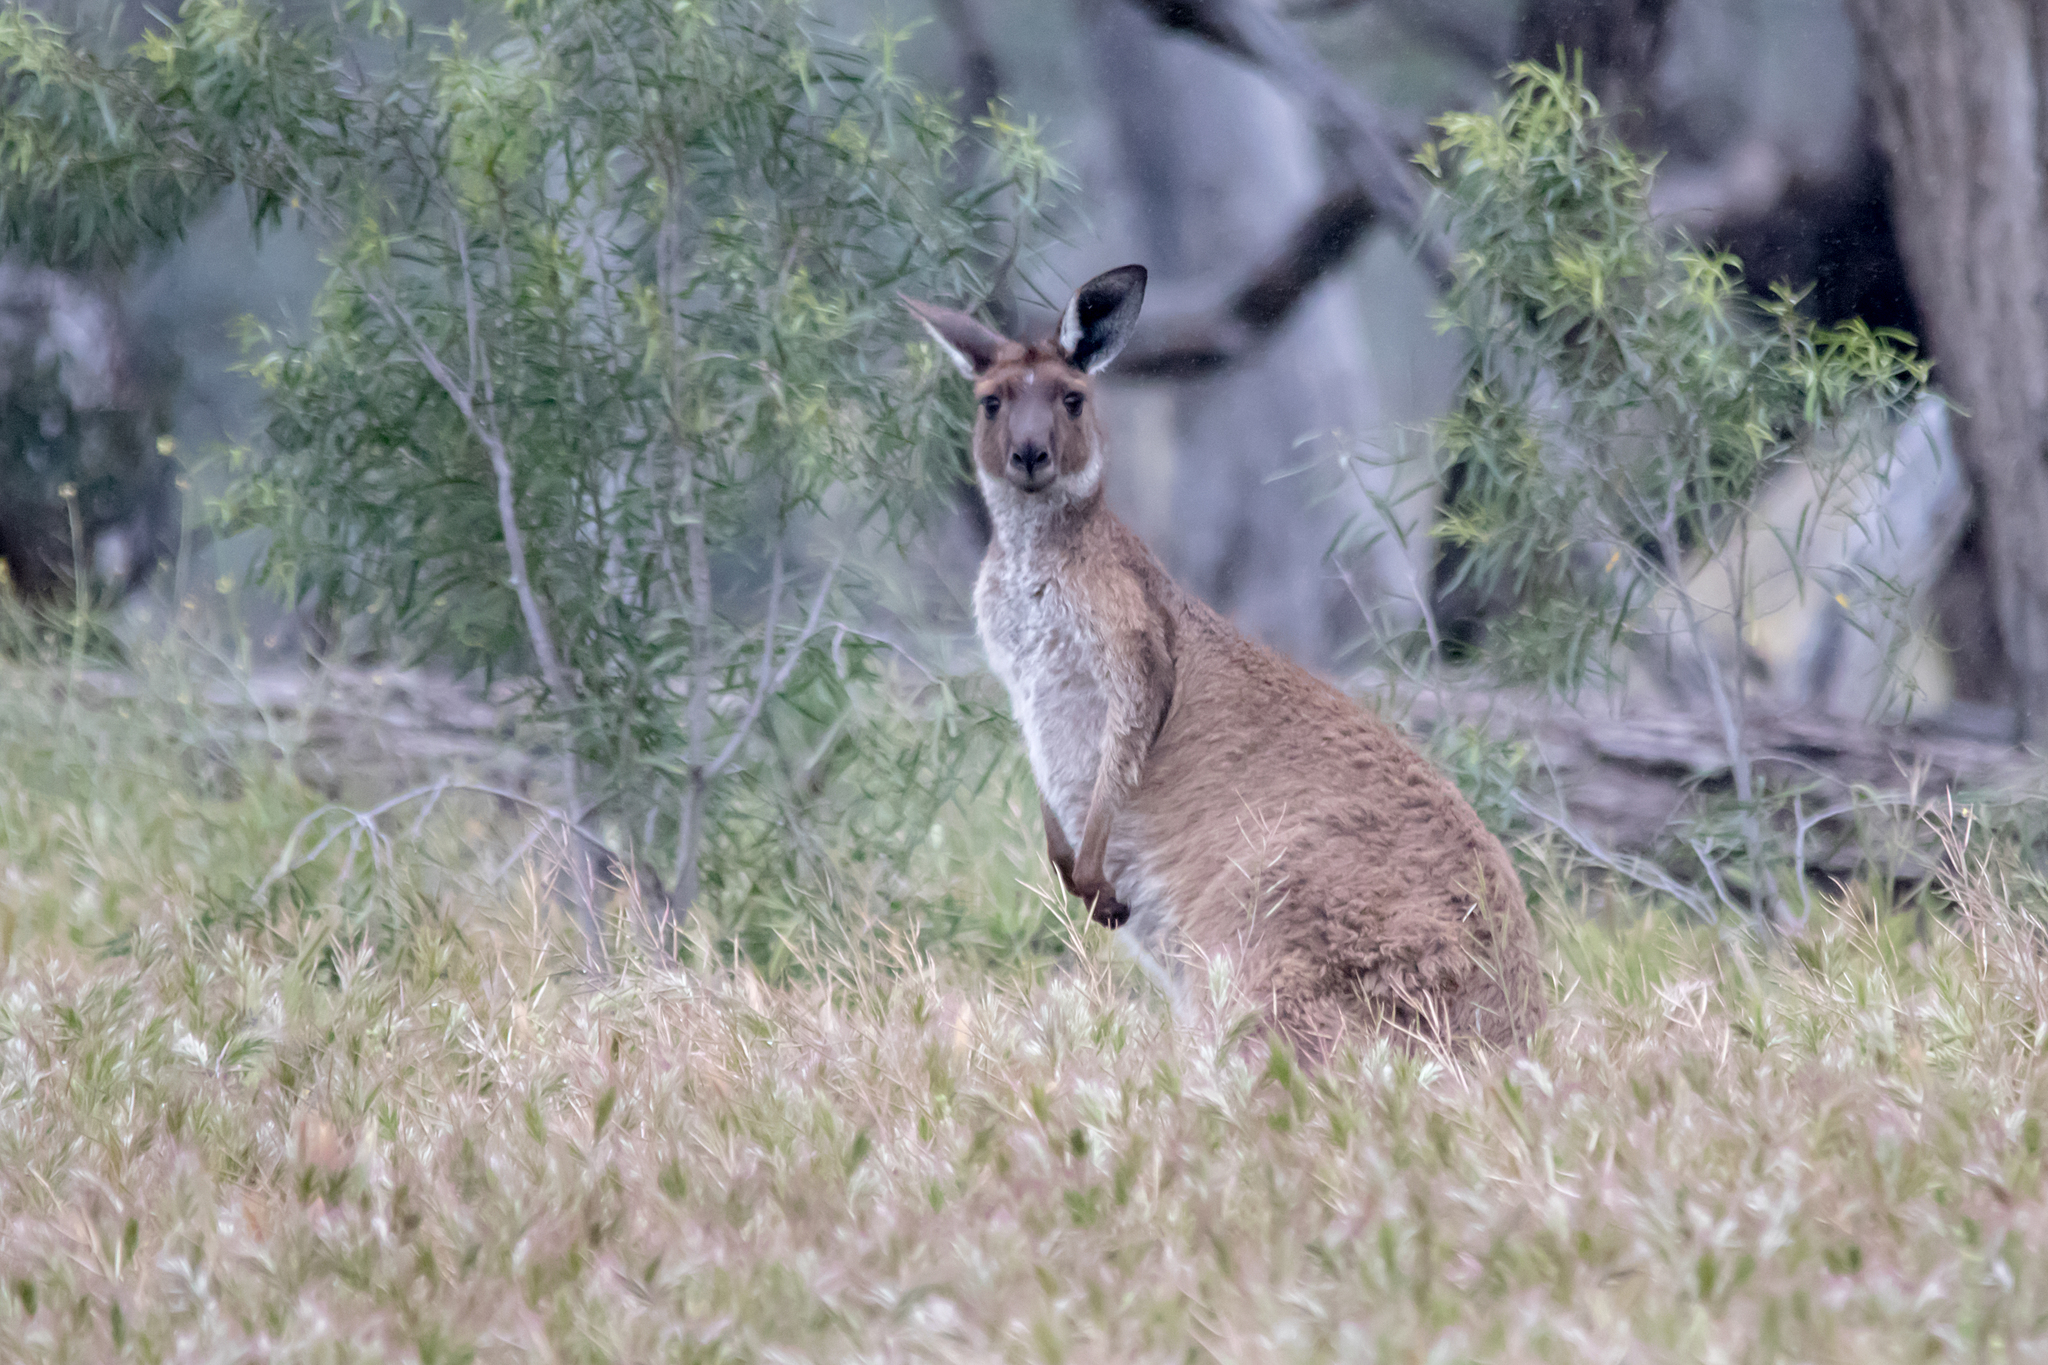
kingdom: Animalia
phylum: Chordata
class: Mammalia
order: Diprotodontia
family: Macropodidae
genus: Macropus
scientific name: Macropus fuliginosus
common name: Western grey kangaroo
